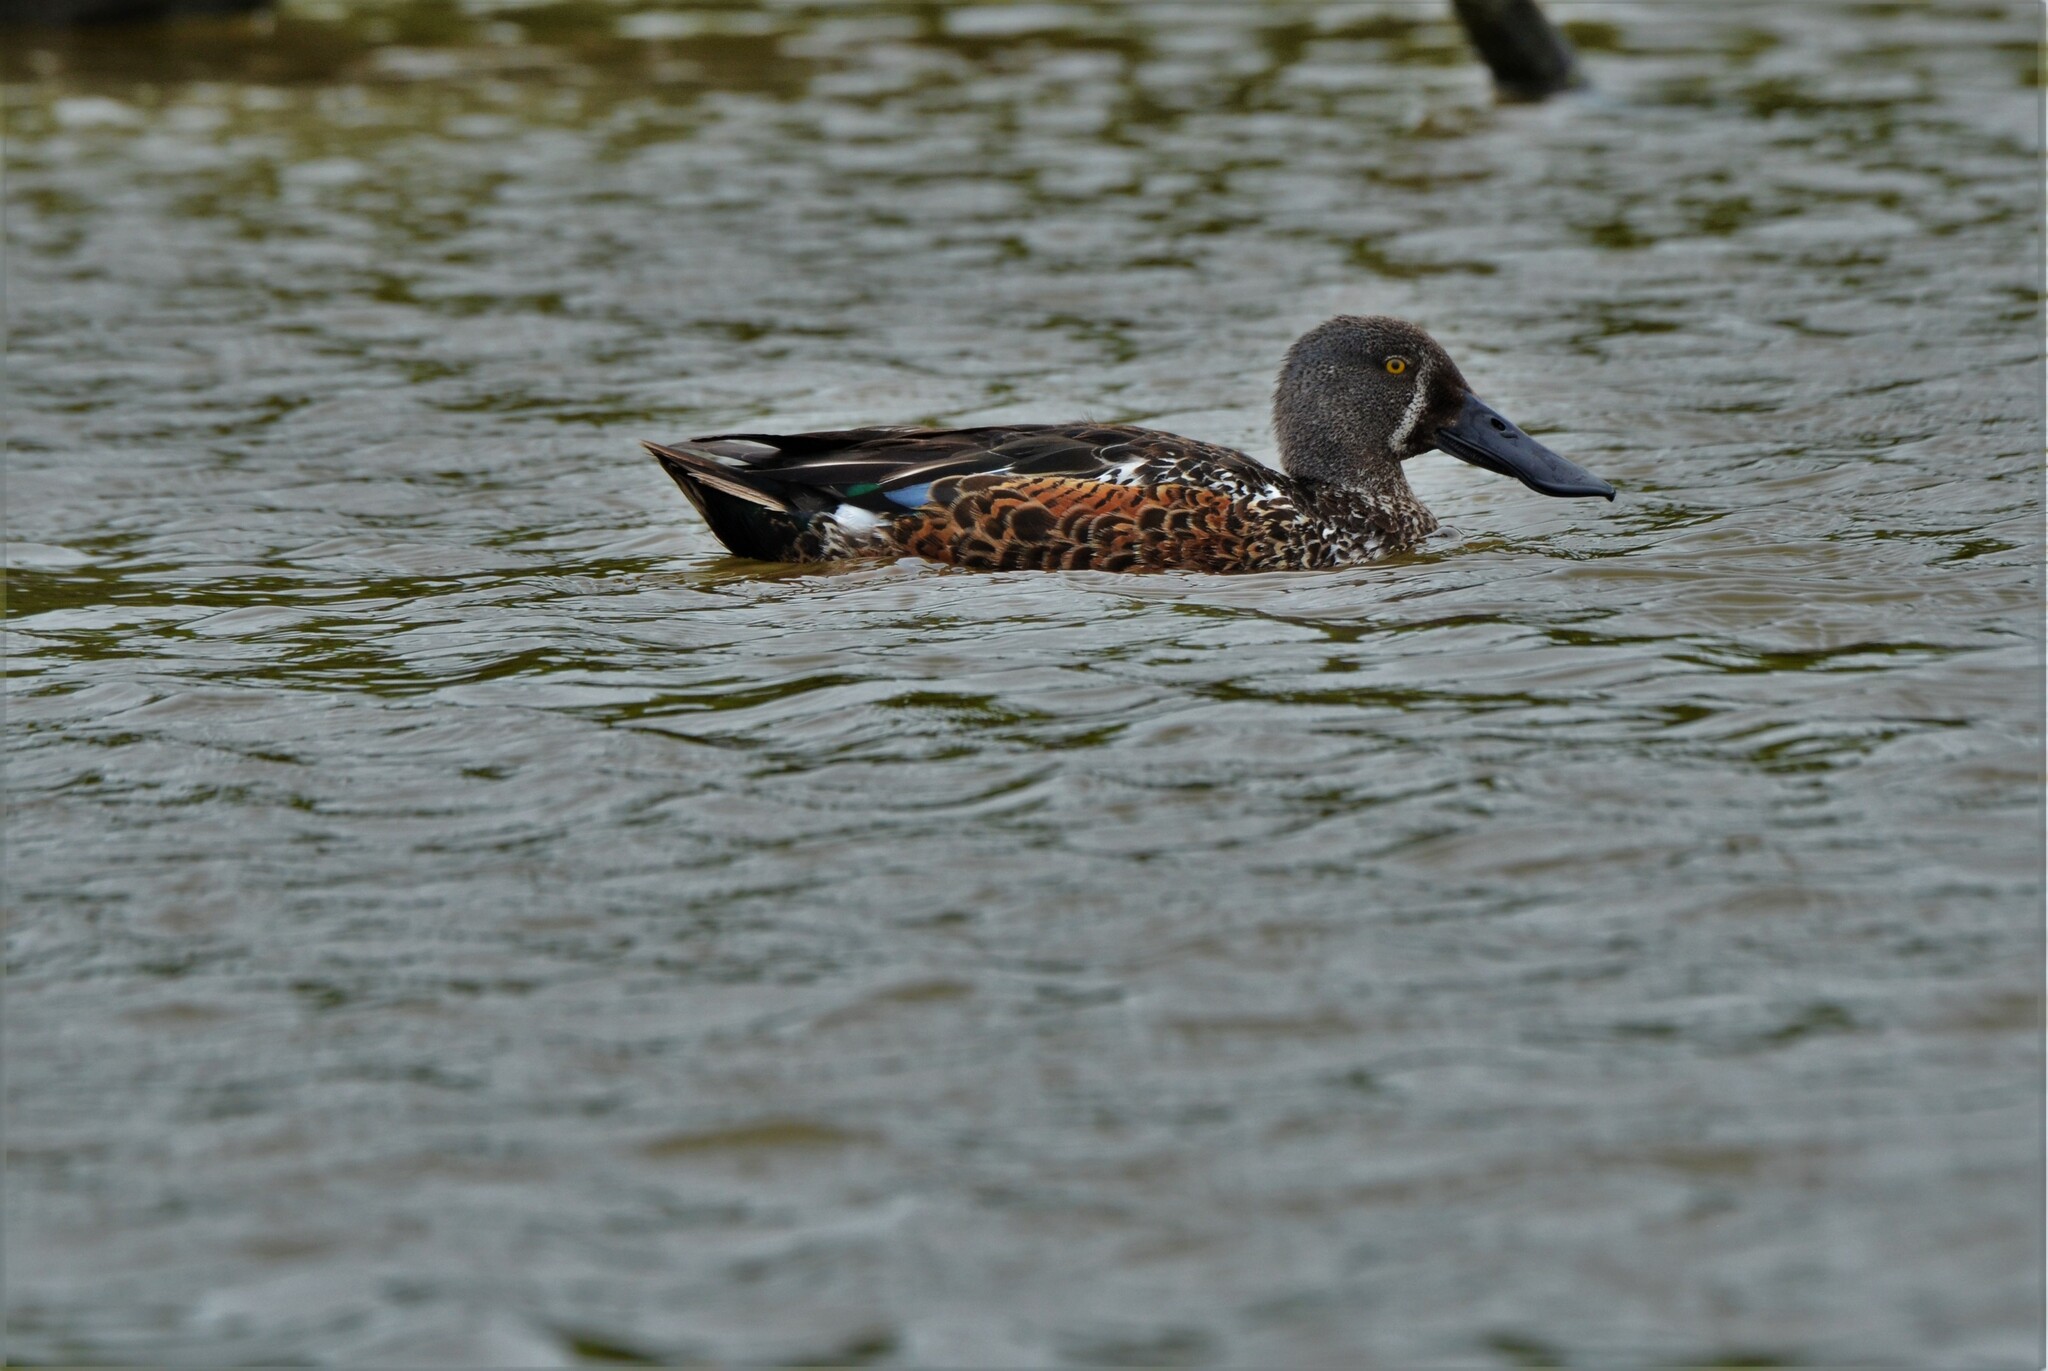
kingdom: Animalia
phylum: Chordata
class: Aves
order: Anseriformes
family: Anatidae
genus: Spatula
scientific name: Spatula rhynchotis
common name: Australian shoveler
